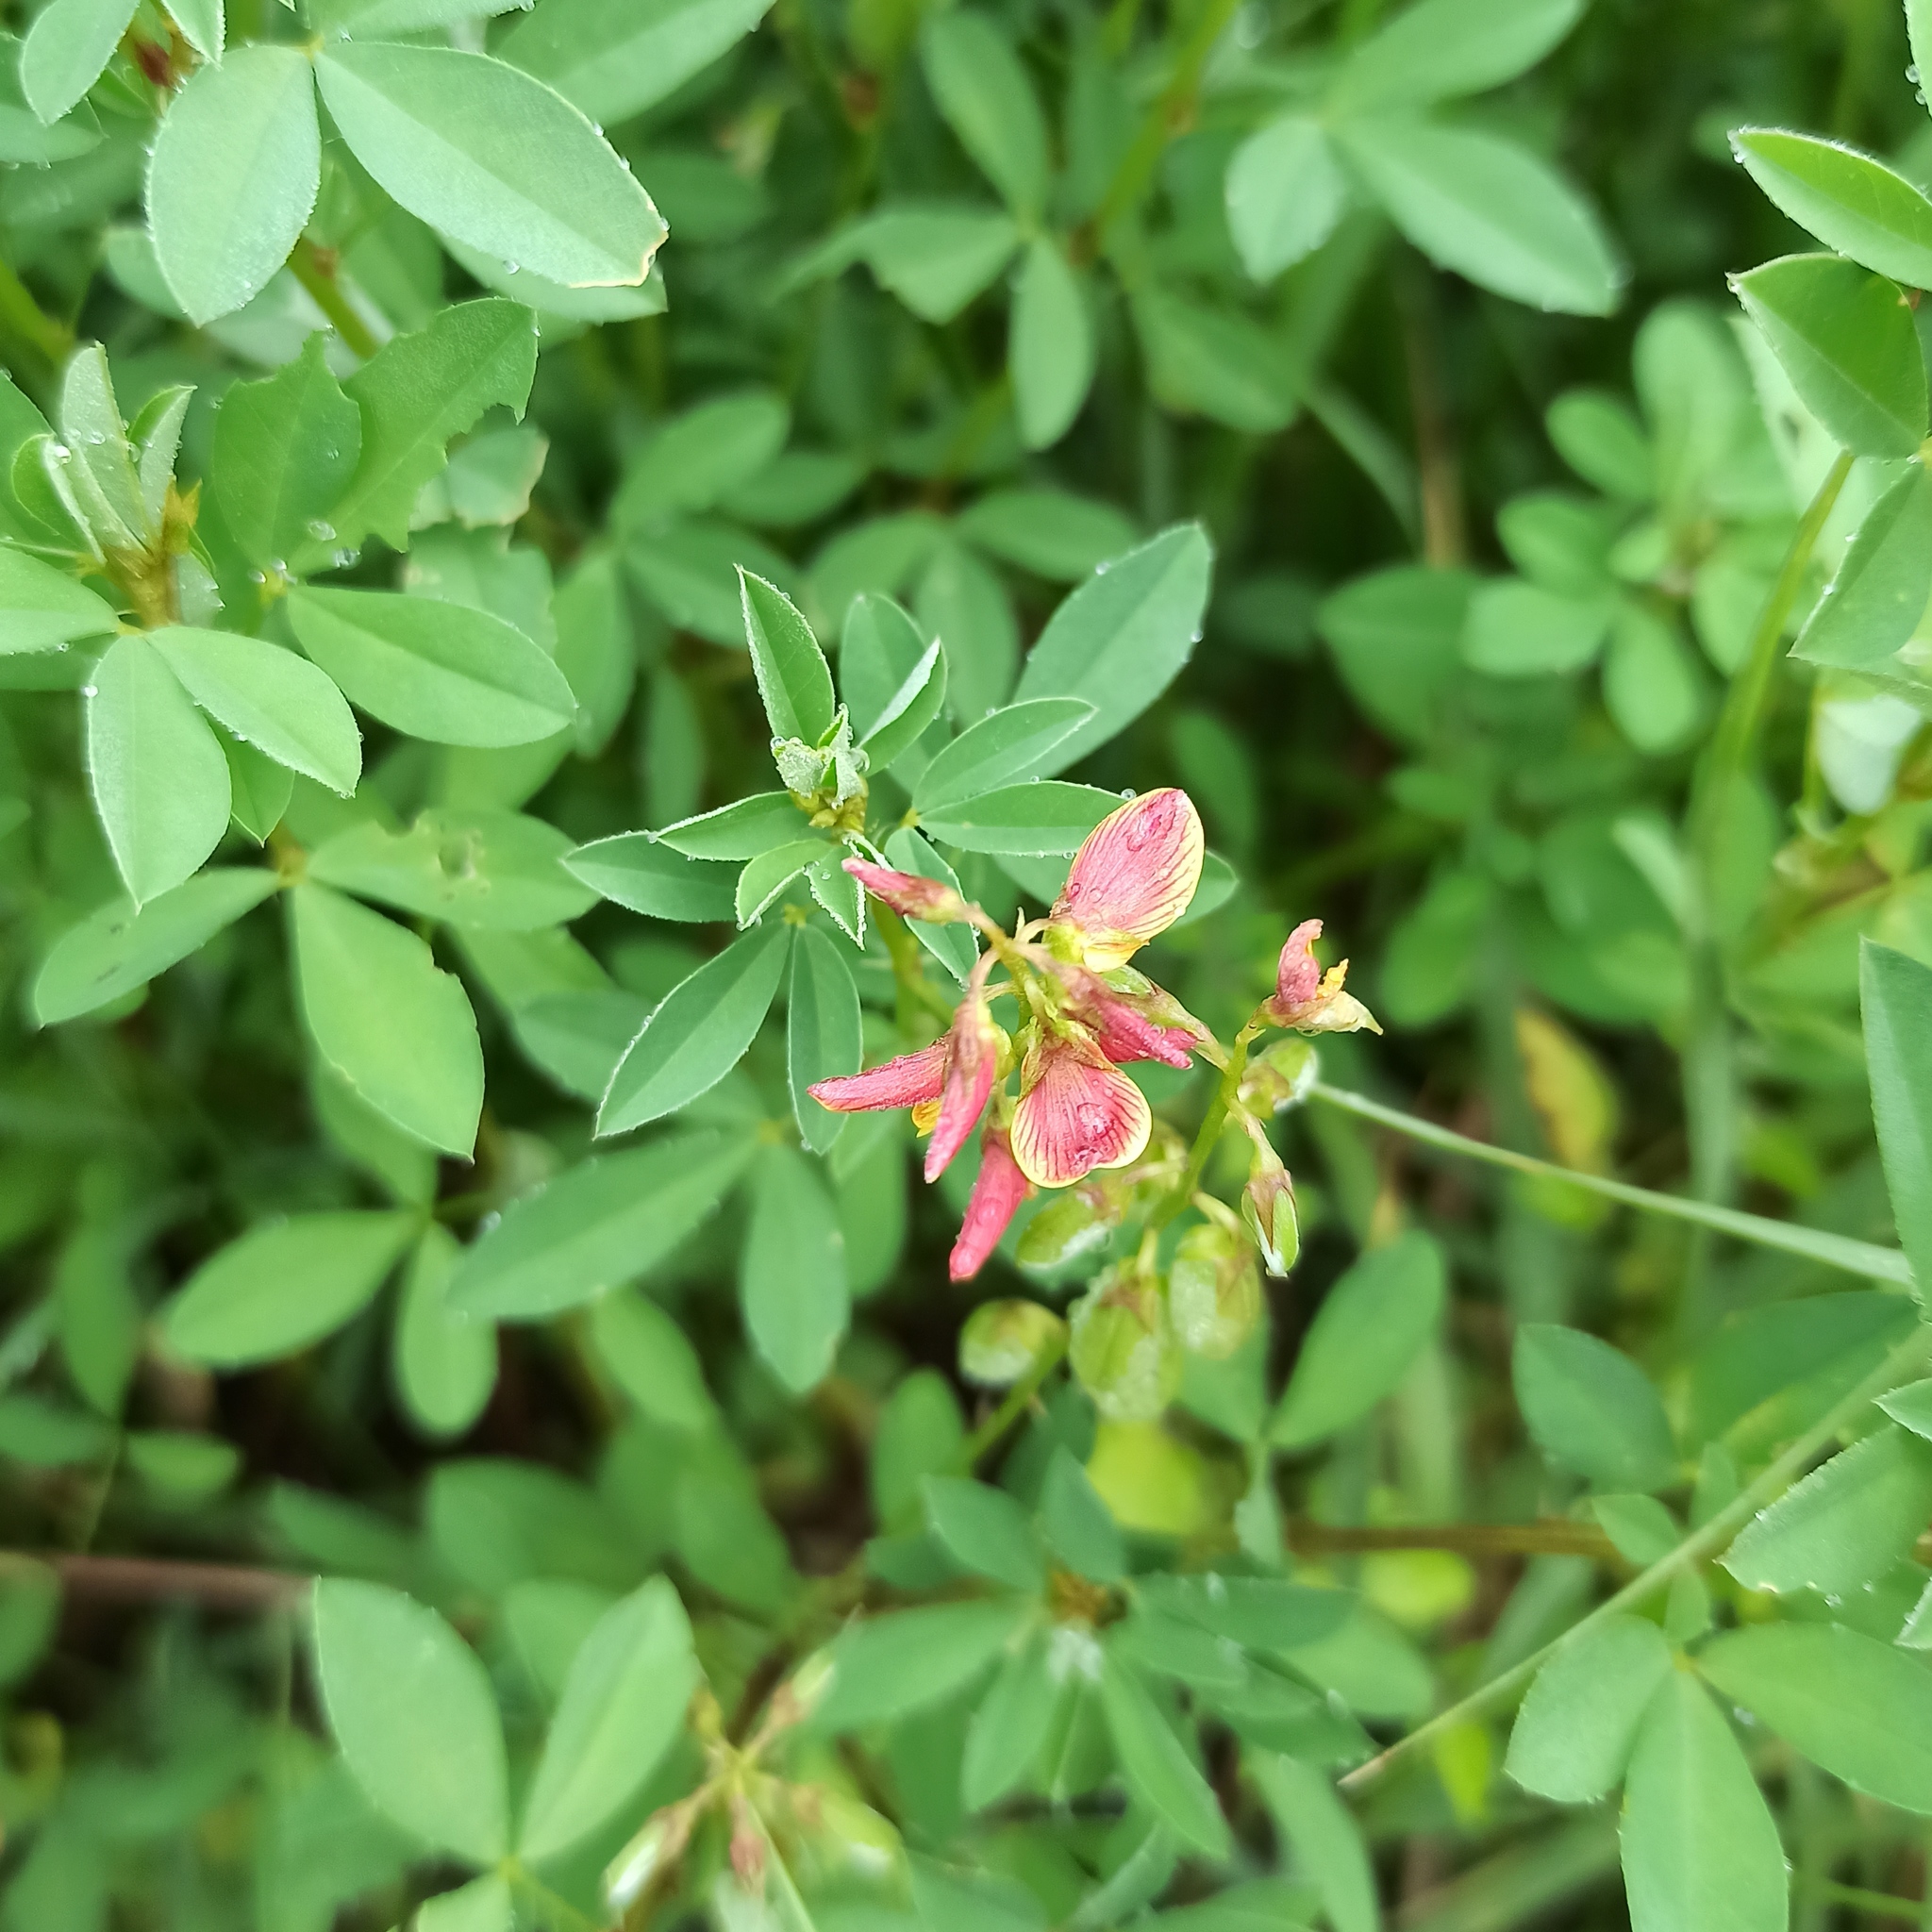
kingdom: Plantae
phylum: Tracheophyta
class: Magnoliopsida
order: Fabales
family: Fabaceae
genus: Crotalaria
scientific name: Crotalaria pumila
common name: Low rattlebox
